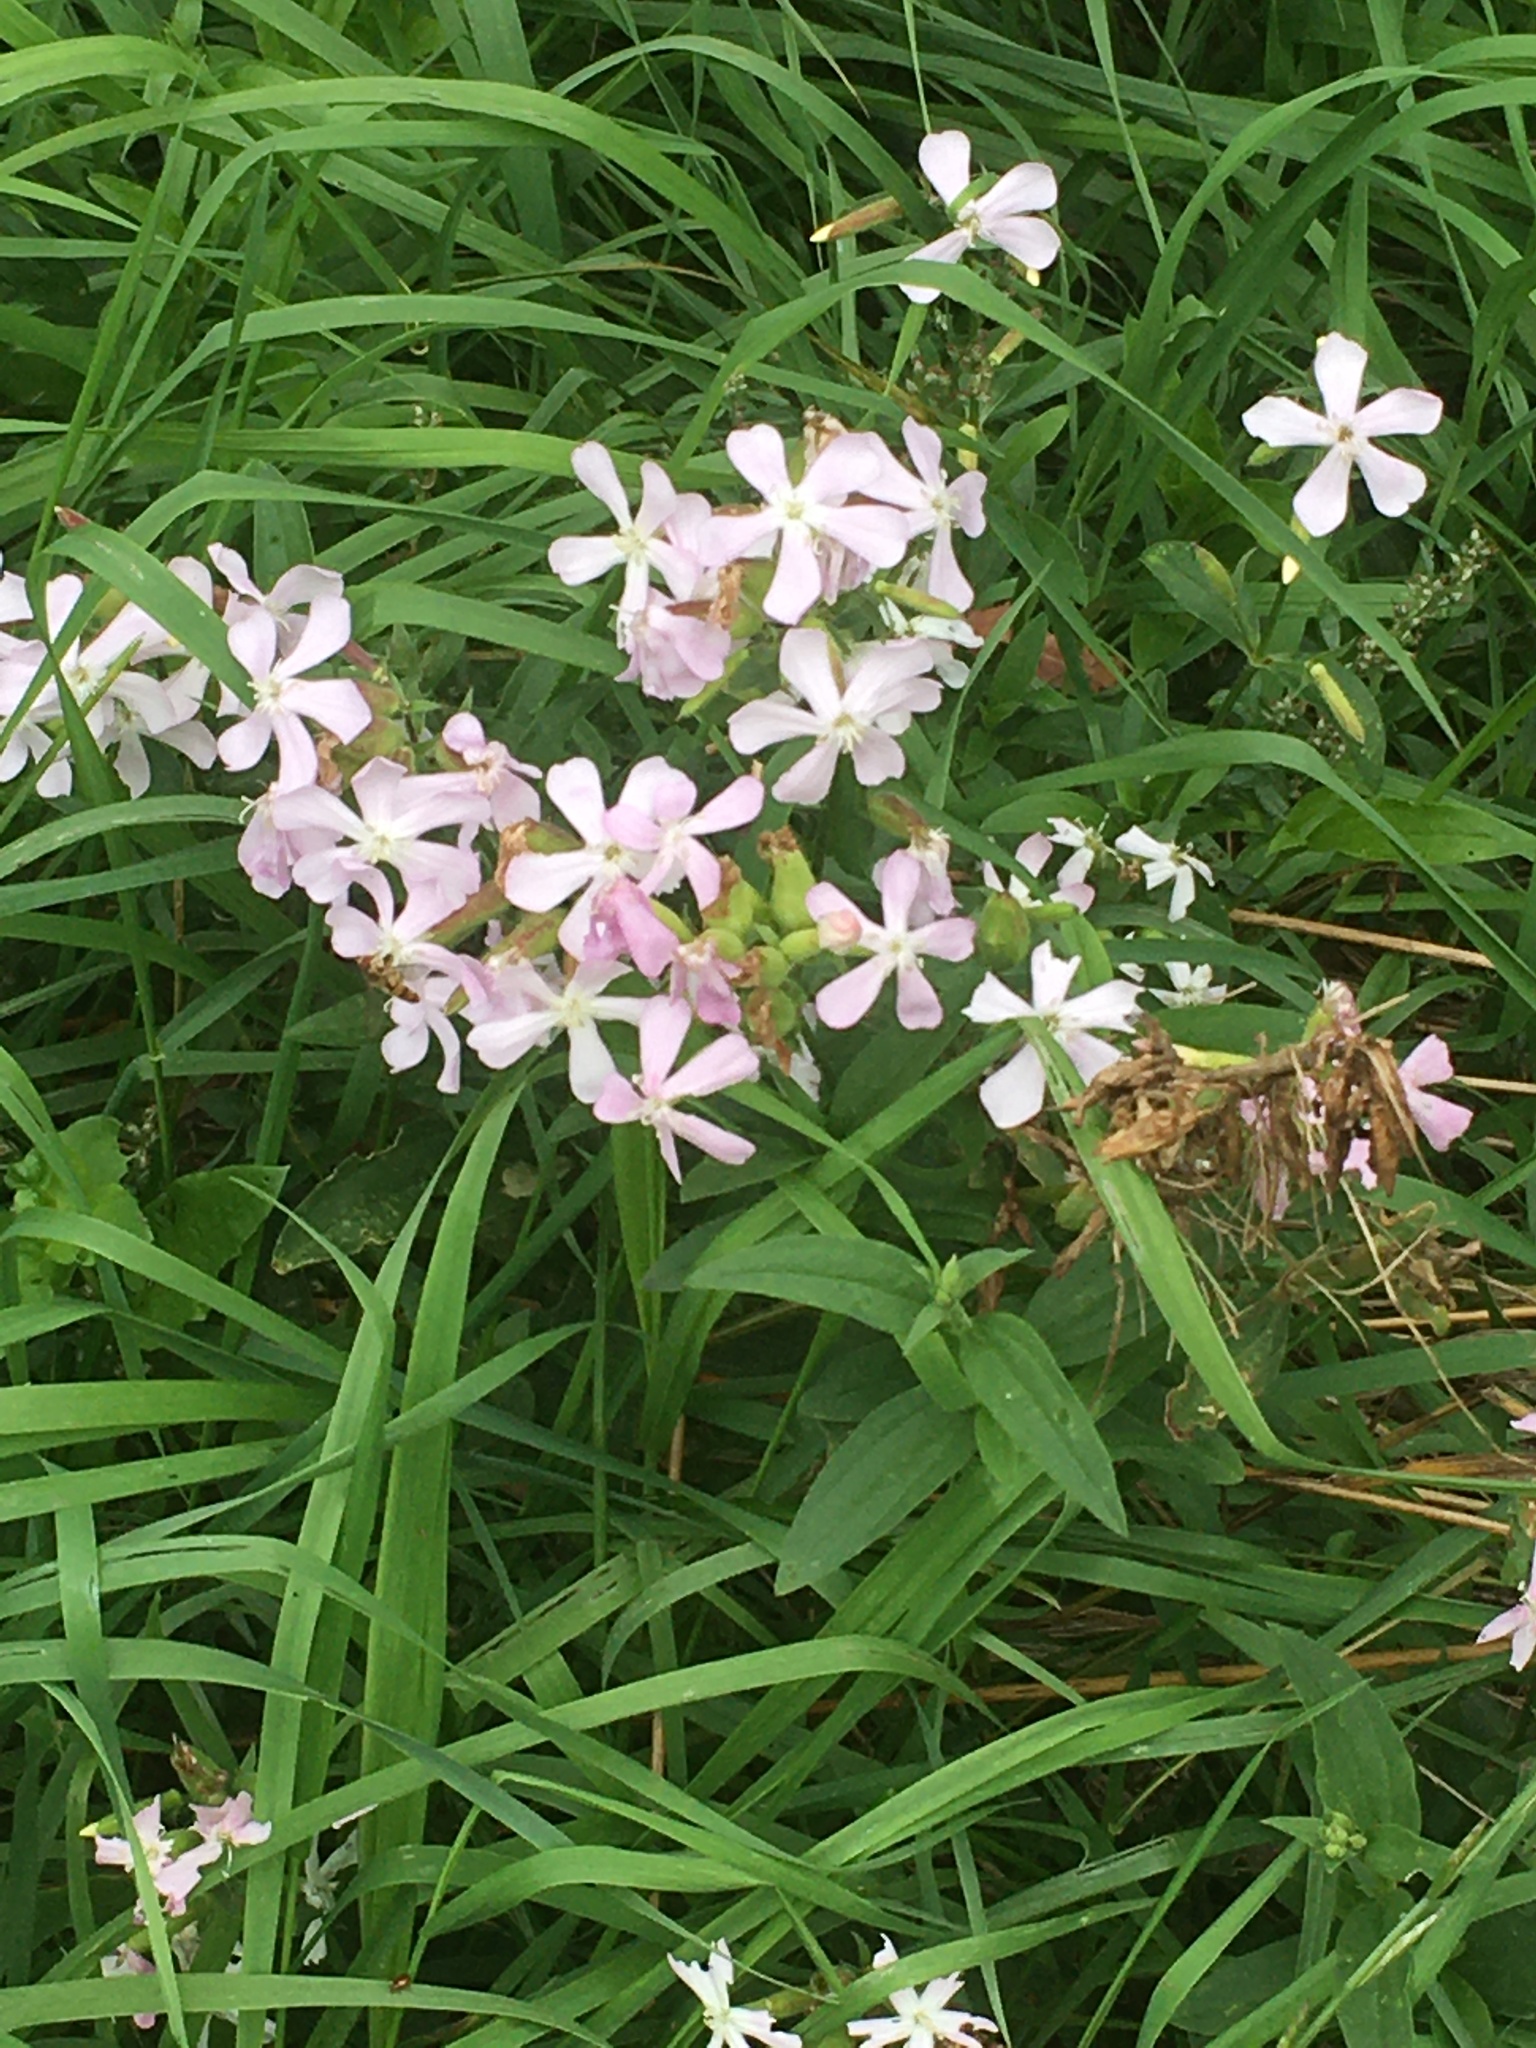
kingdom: Plantae
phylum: Tracheophyta
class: Magnoliopsida
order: Caryophyllales
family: Caryophyllaceae
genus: Saponaria
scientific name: Saponaria officinalis
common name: Soapwort
